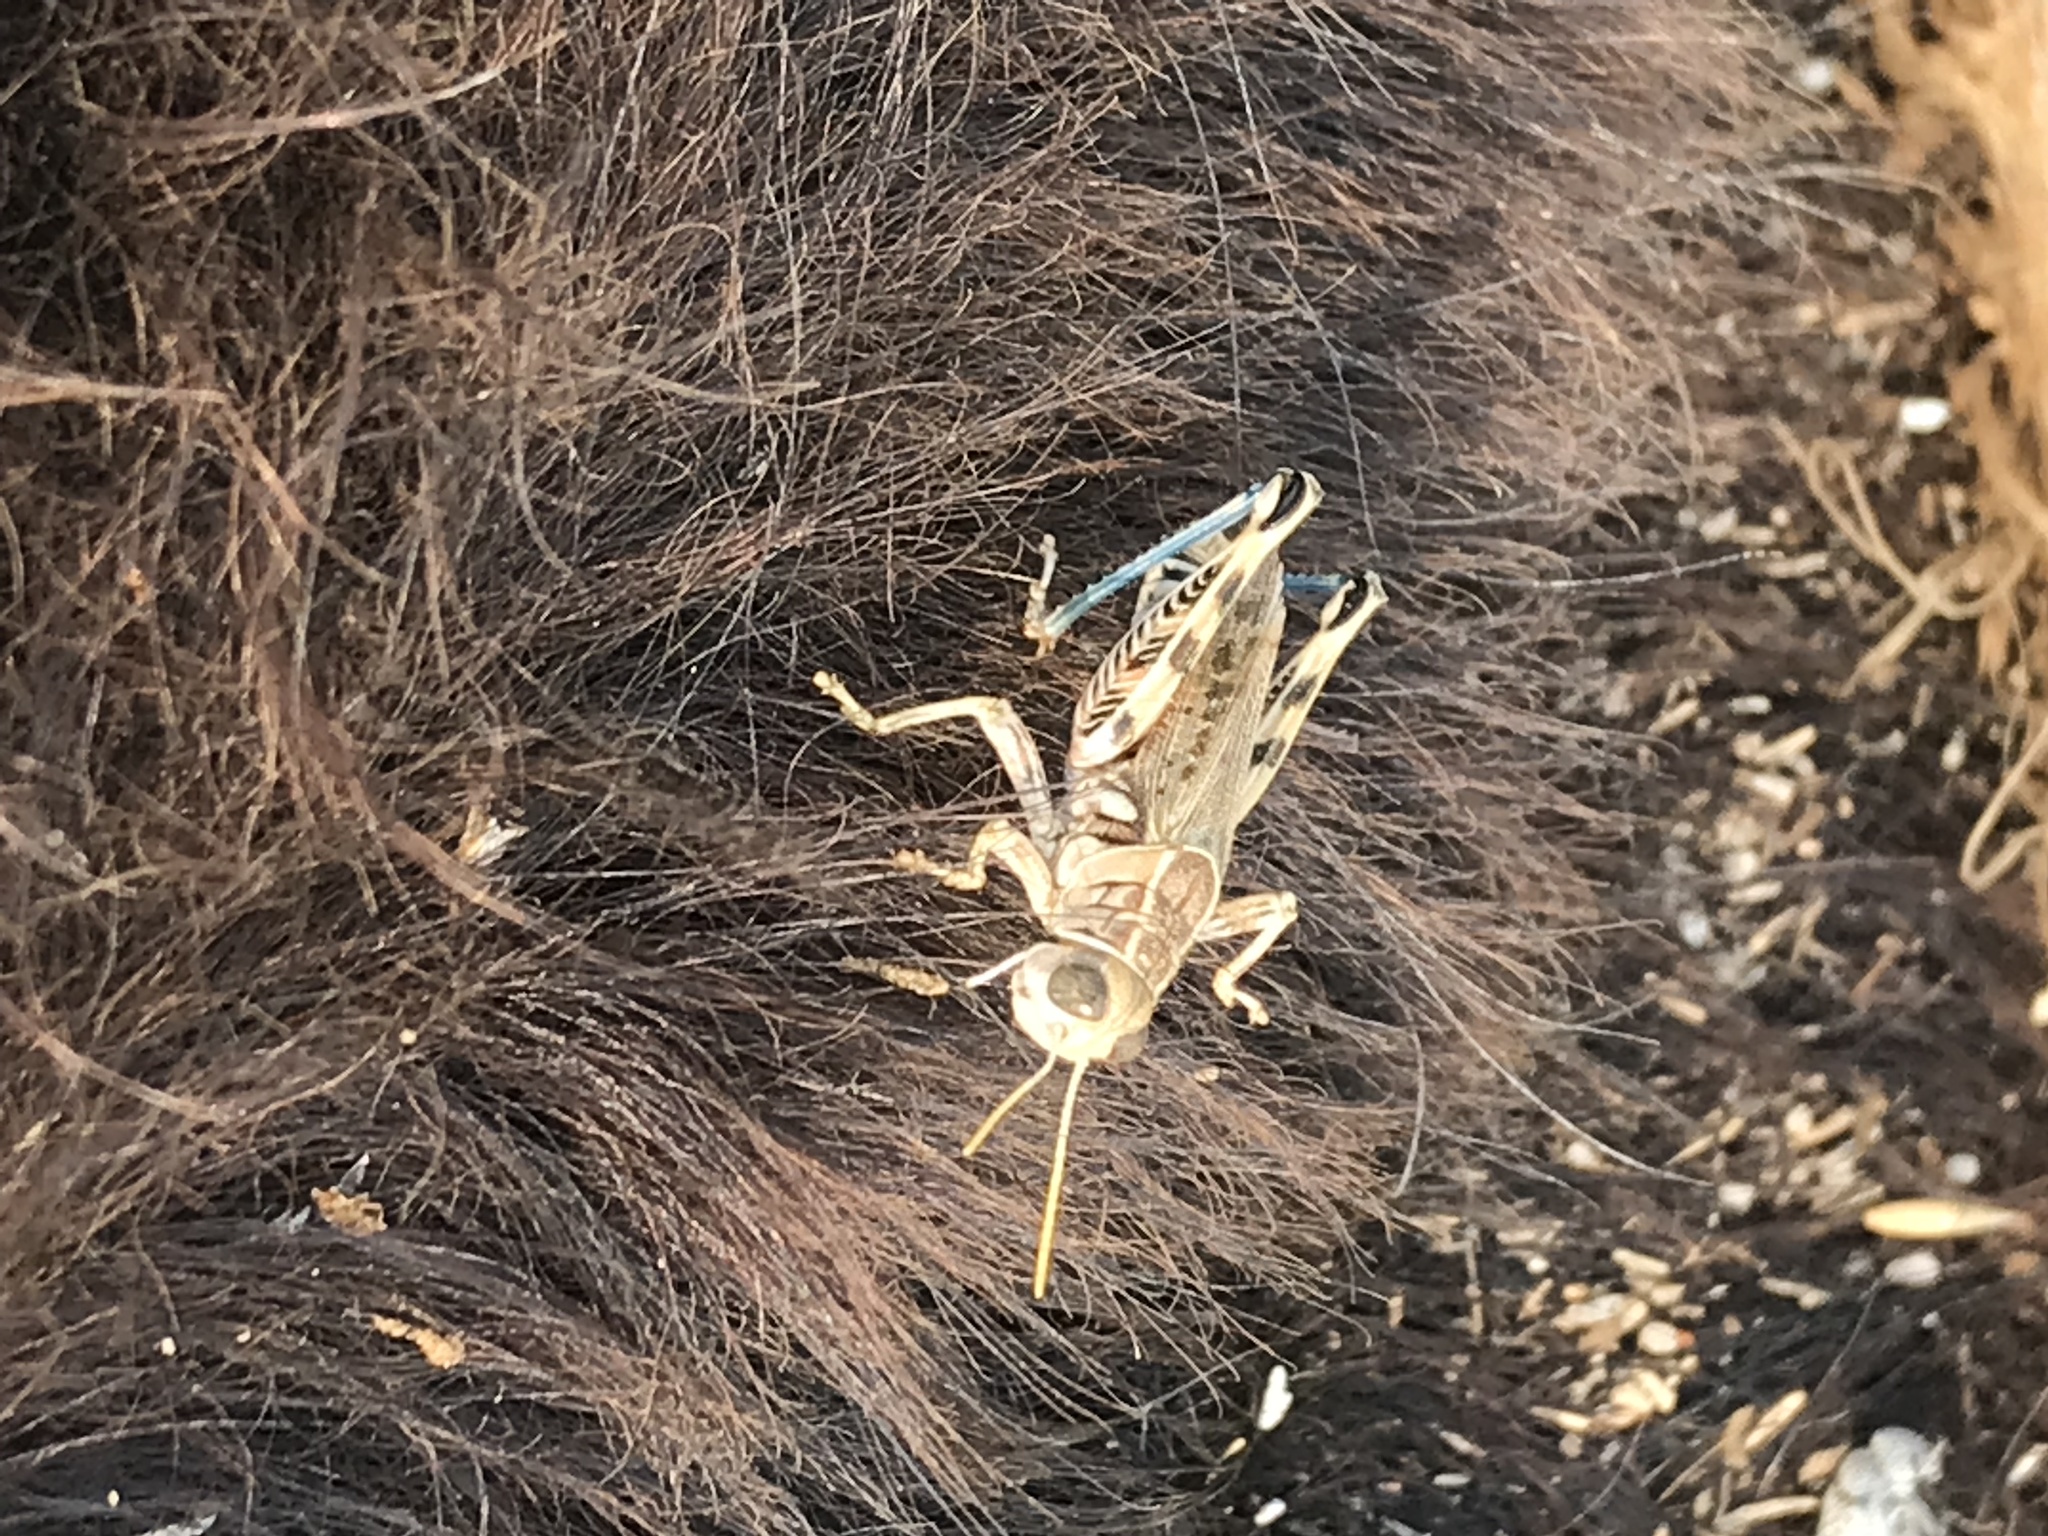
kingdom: Animalia
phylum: Arthropoda
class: Insecta
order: Orthoptera
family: Acrididae
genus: Oedaleonotus
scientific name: Oedaleonotus enigma
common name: Valley grasshopper
